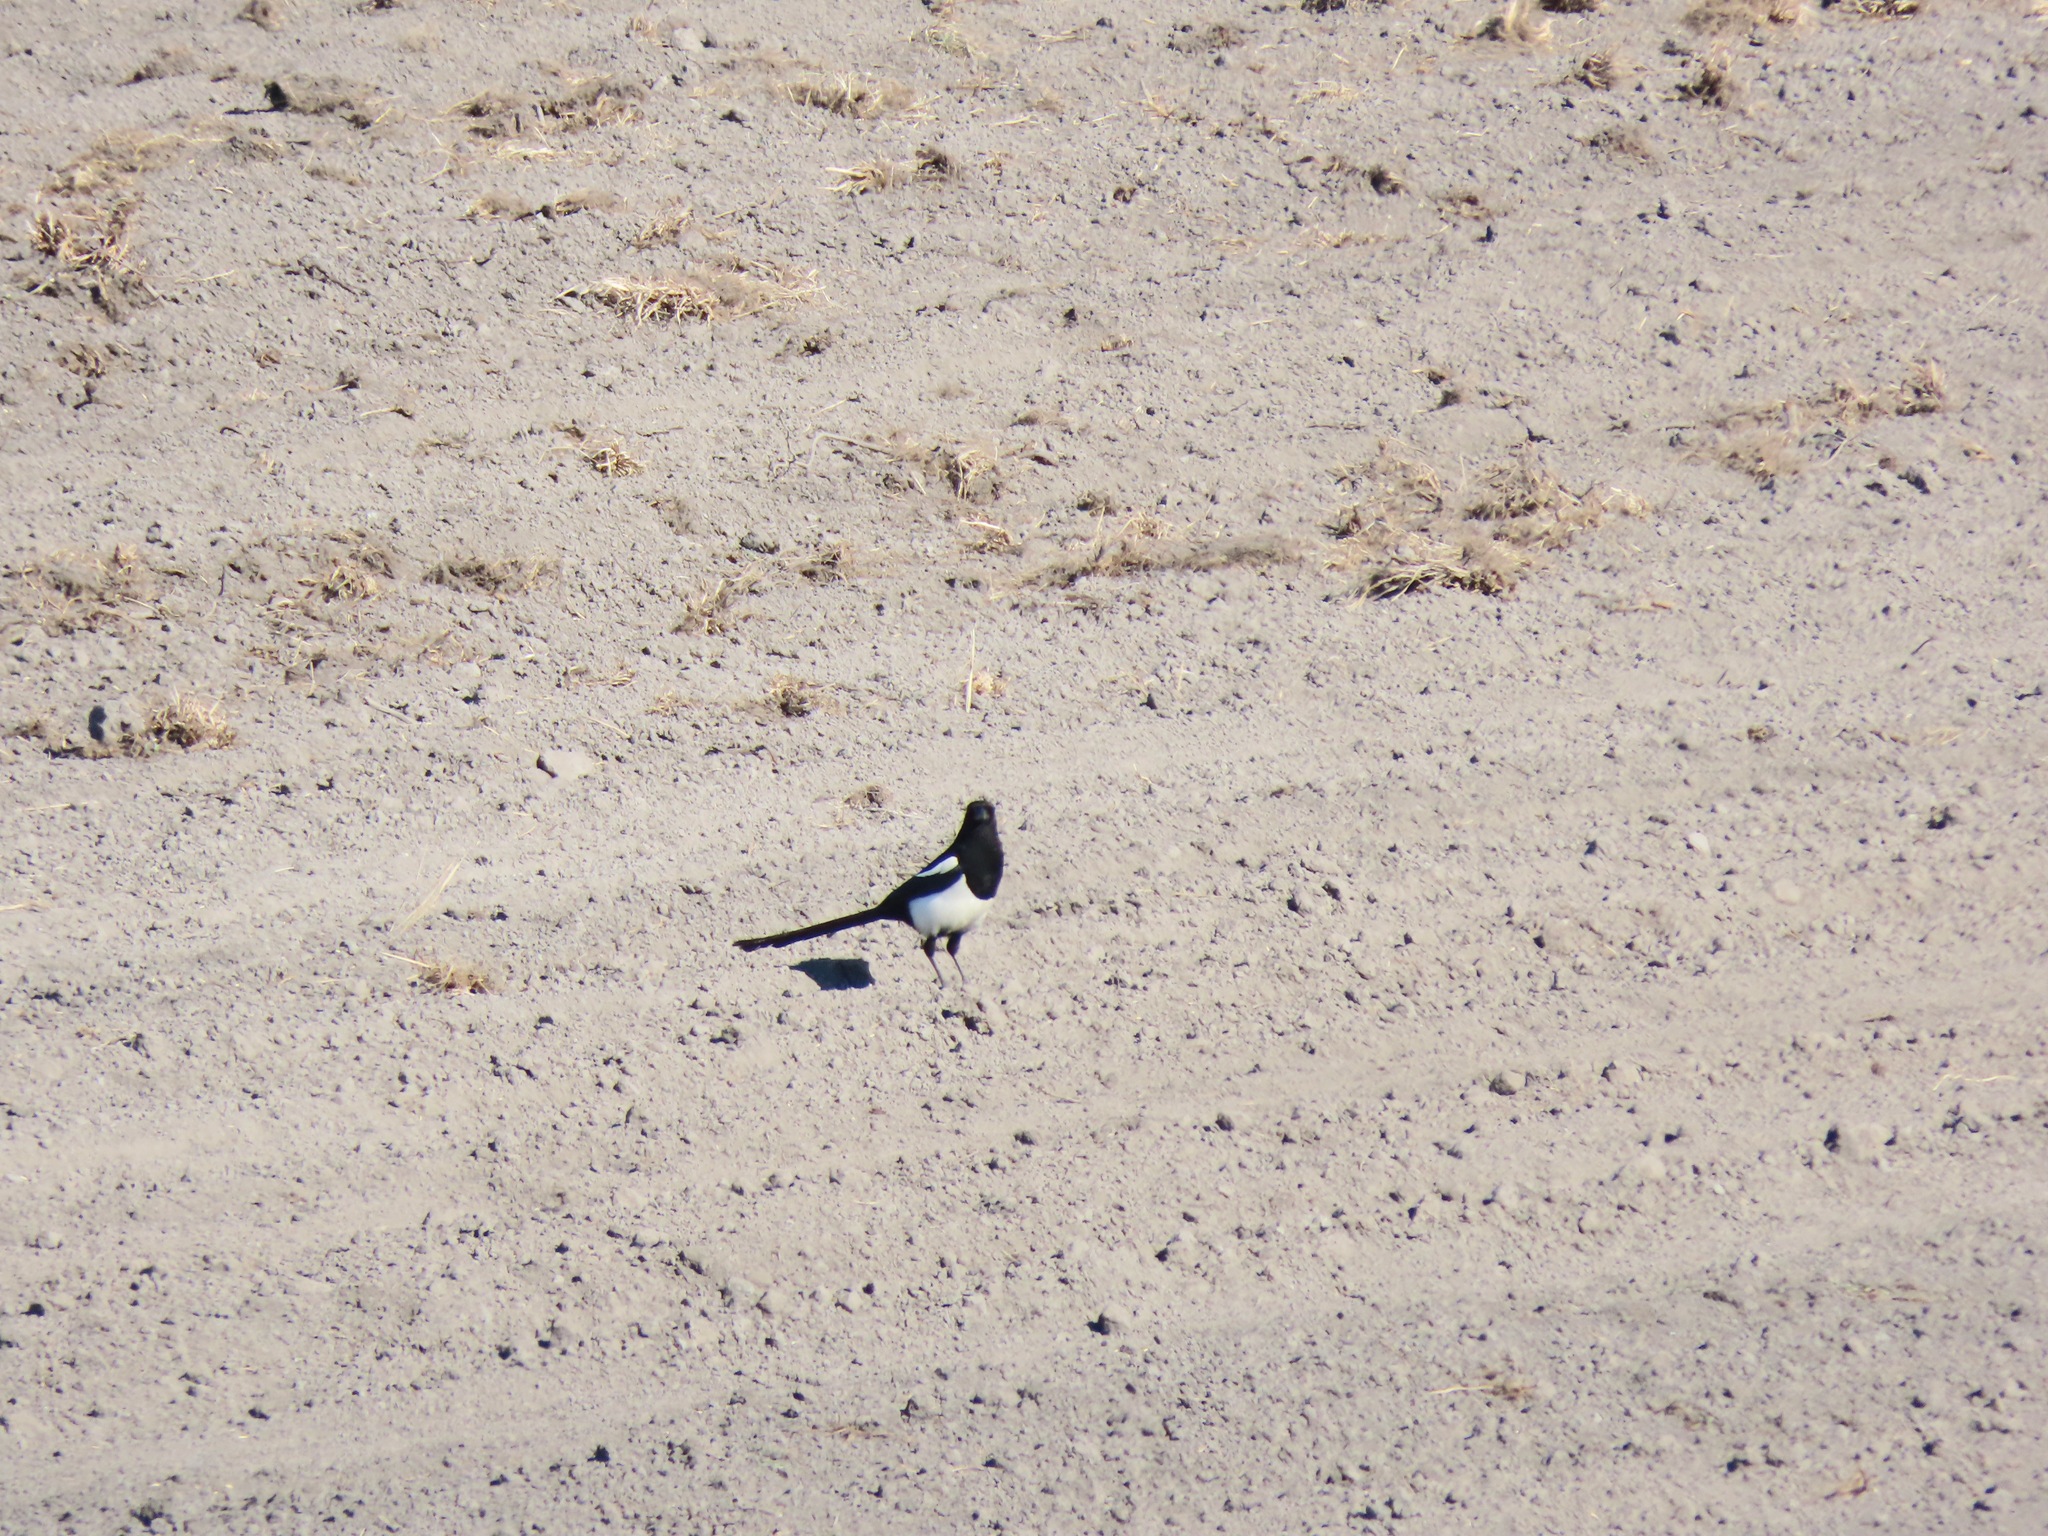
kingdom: Animalia
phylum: Chordata
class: Aves
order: Passeriformes
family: Corvidae
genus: Pica
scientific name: Pica hudsonia
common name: Black-billed magpie
